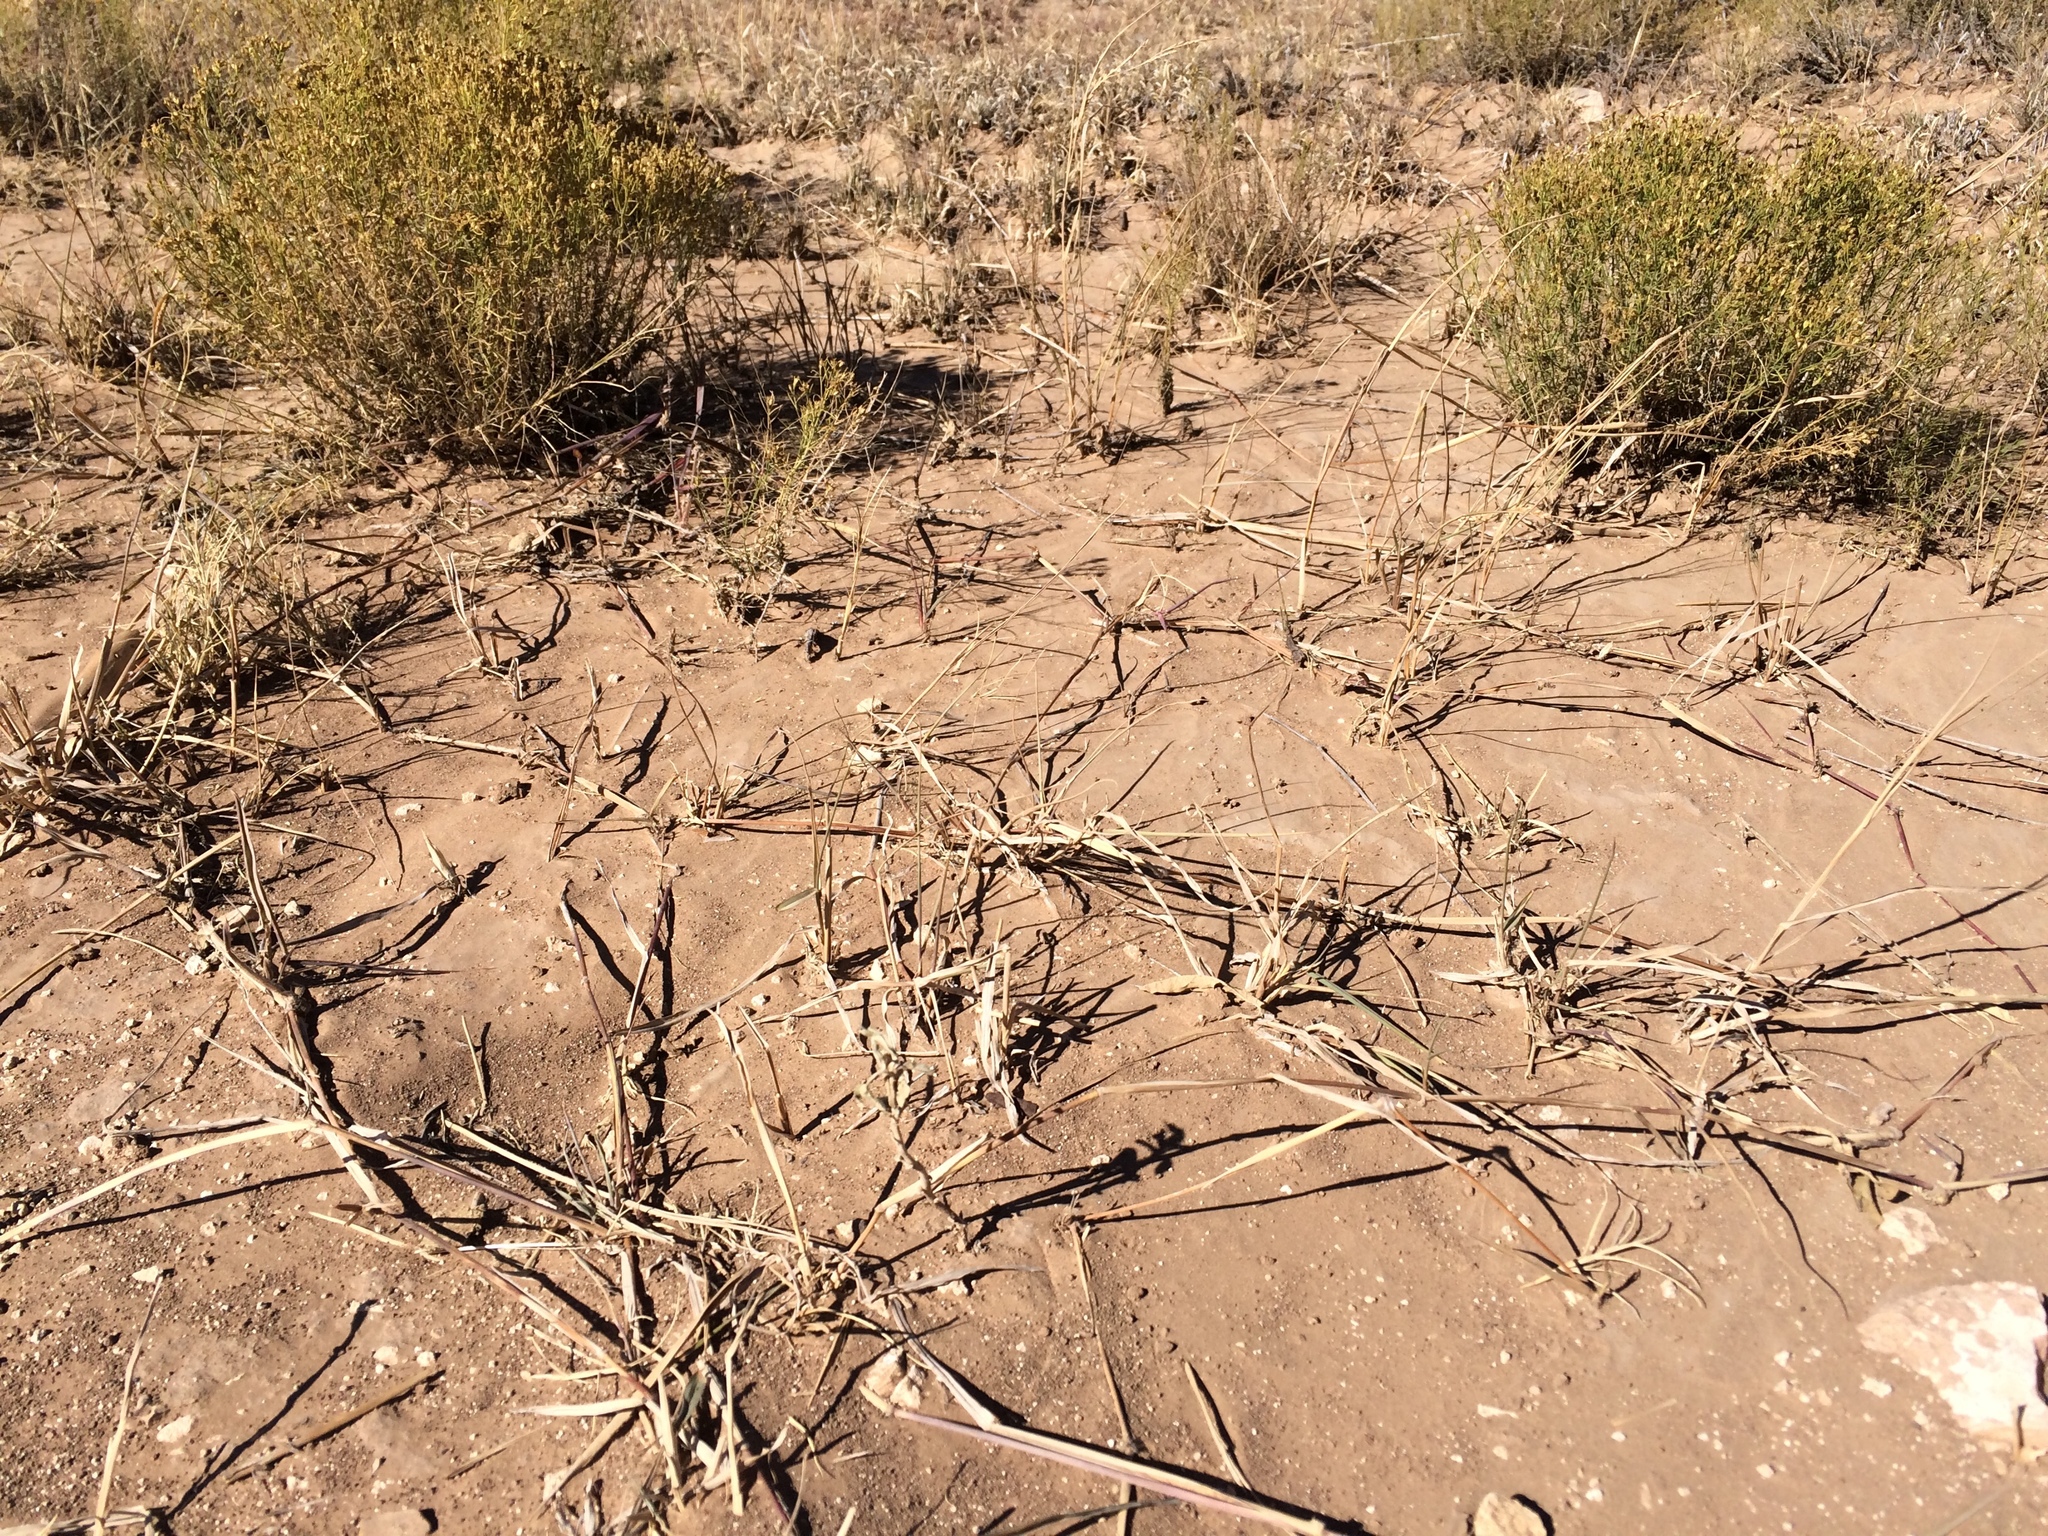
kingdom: Plantae
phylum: Tracheophyta
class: Liliopsida
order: Poales
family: Poaceae
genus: Hopia
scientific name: Hopia obtusa
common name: Vine-mesquite
